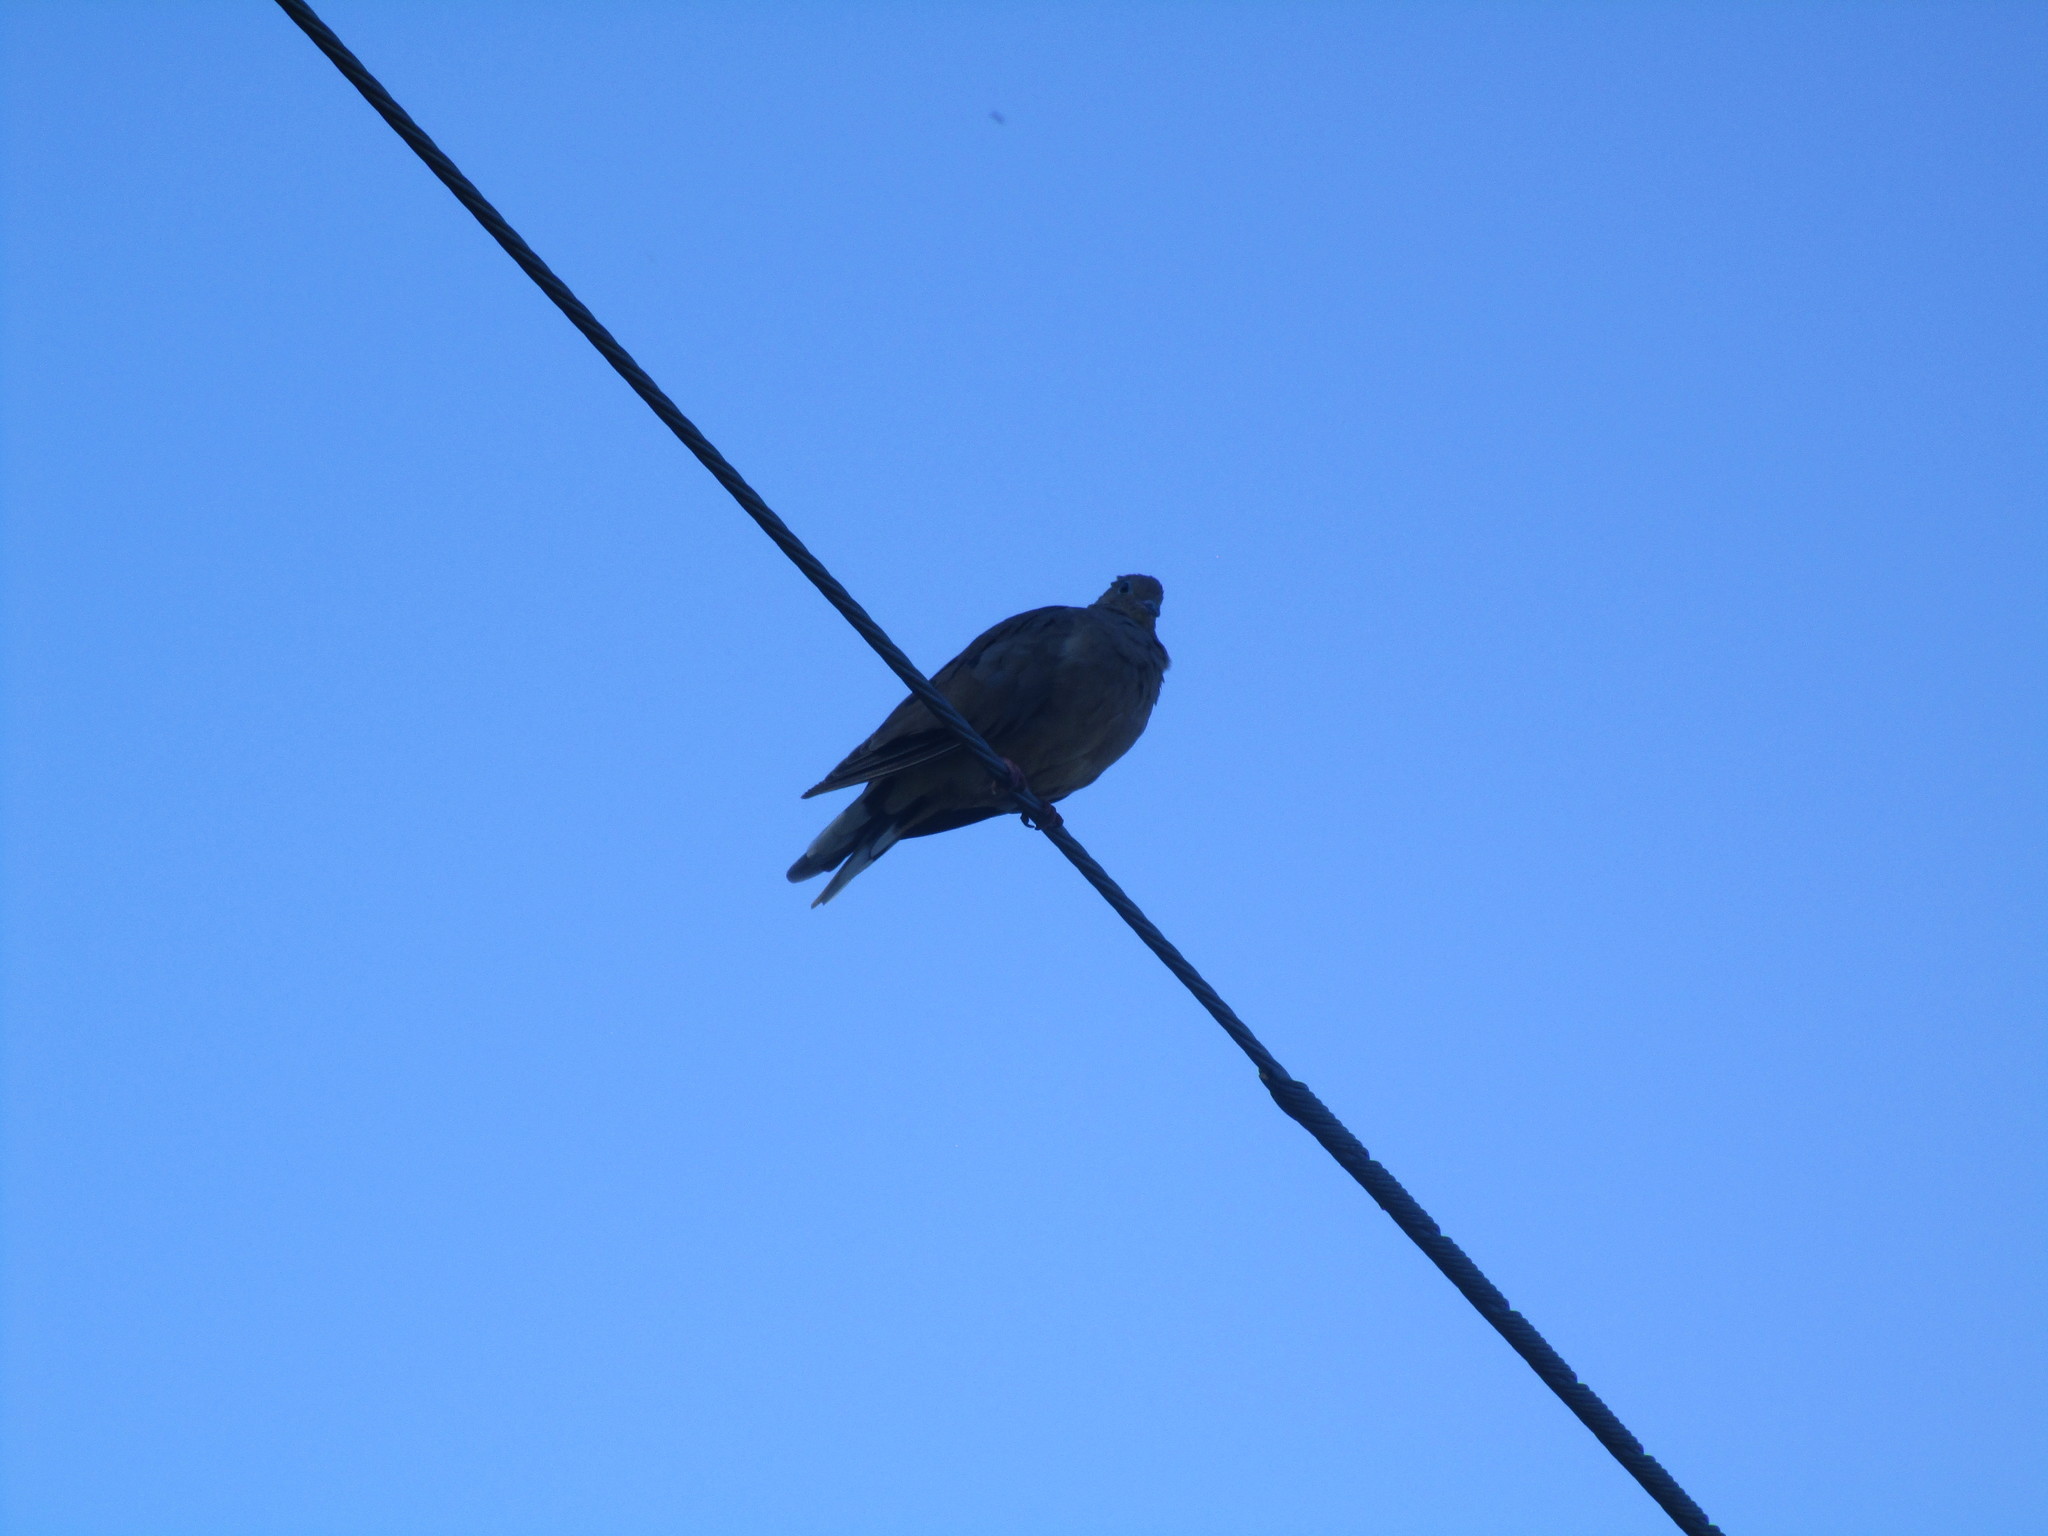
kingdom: Animalia
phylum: Chordata
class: Aves
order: Columbiformes
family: Columbidae
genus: Zenaida
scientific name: Zenaida macroura
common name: Mourning dove
